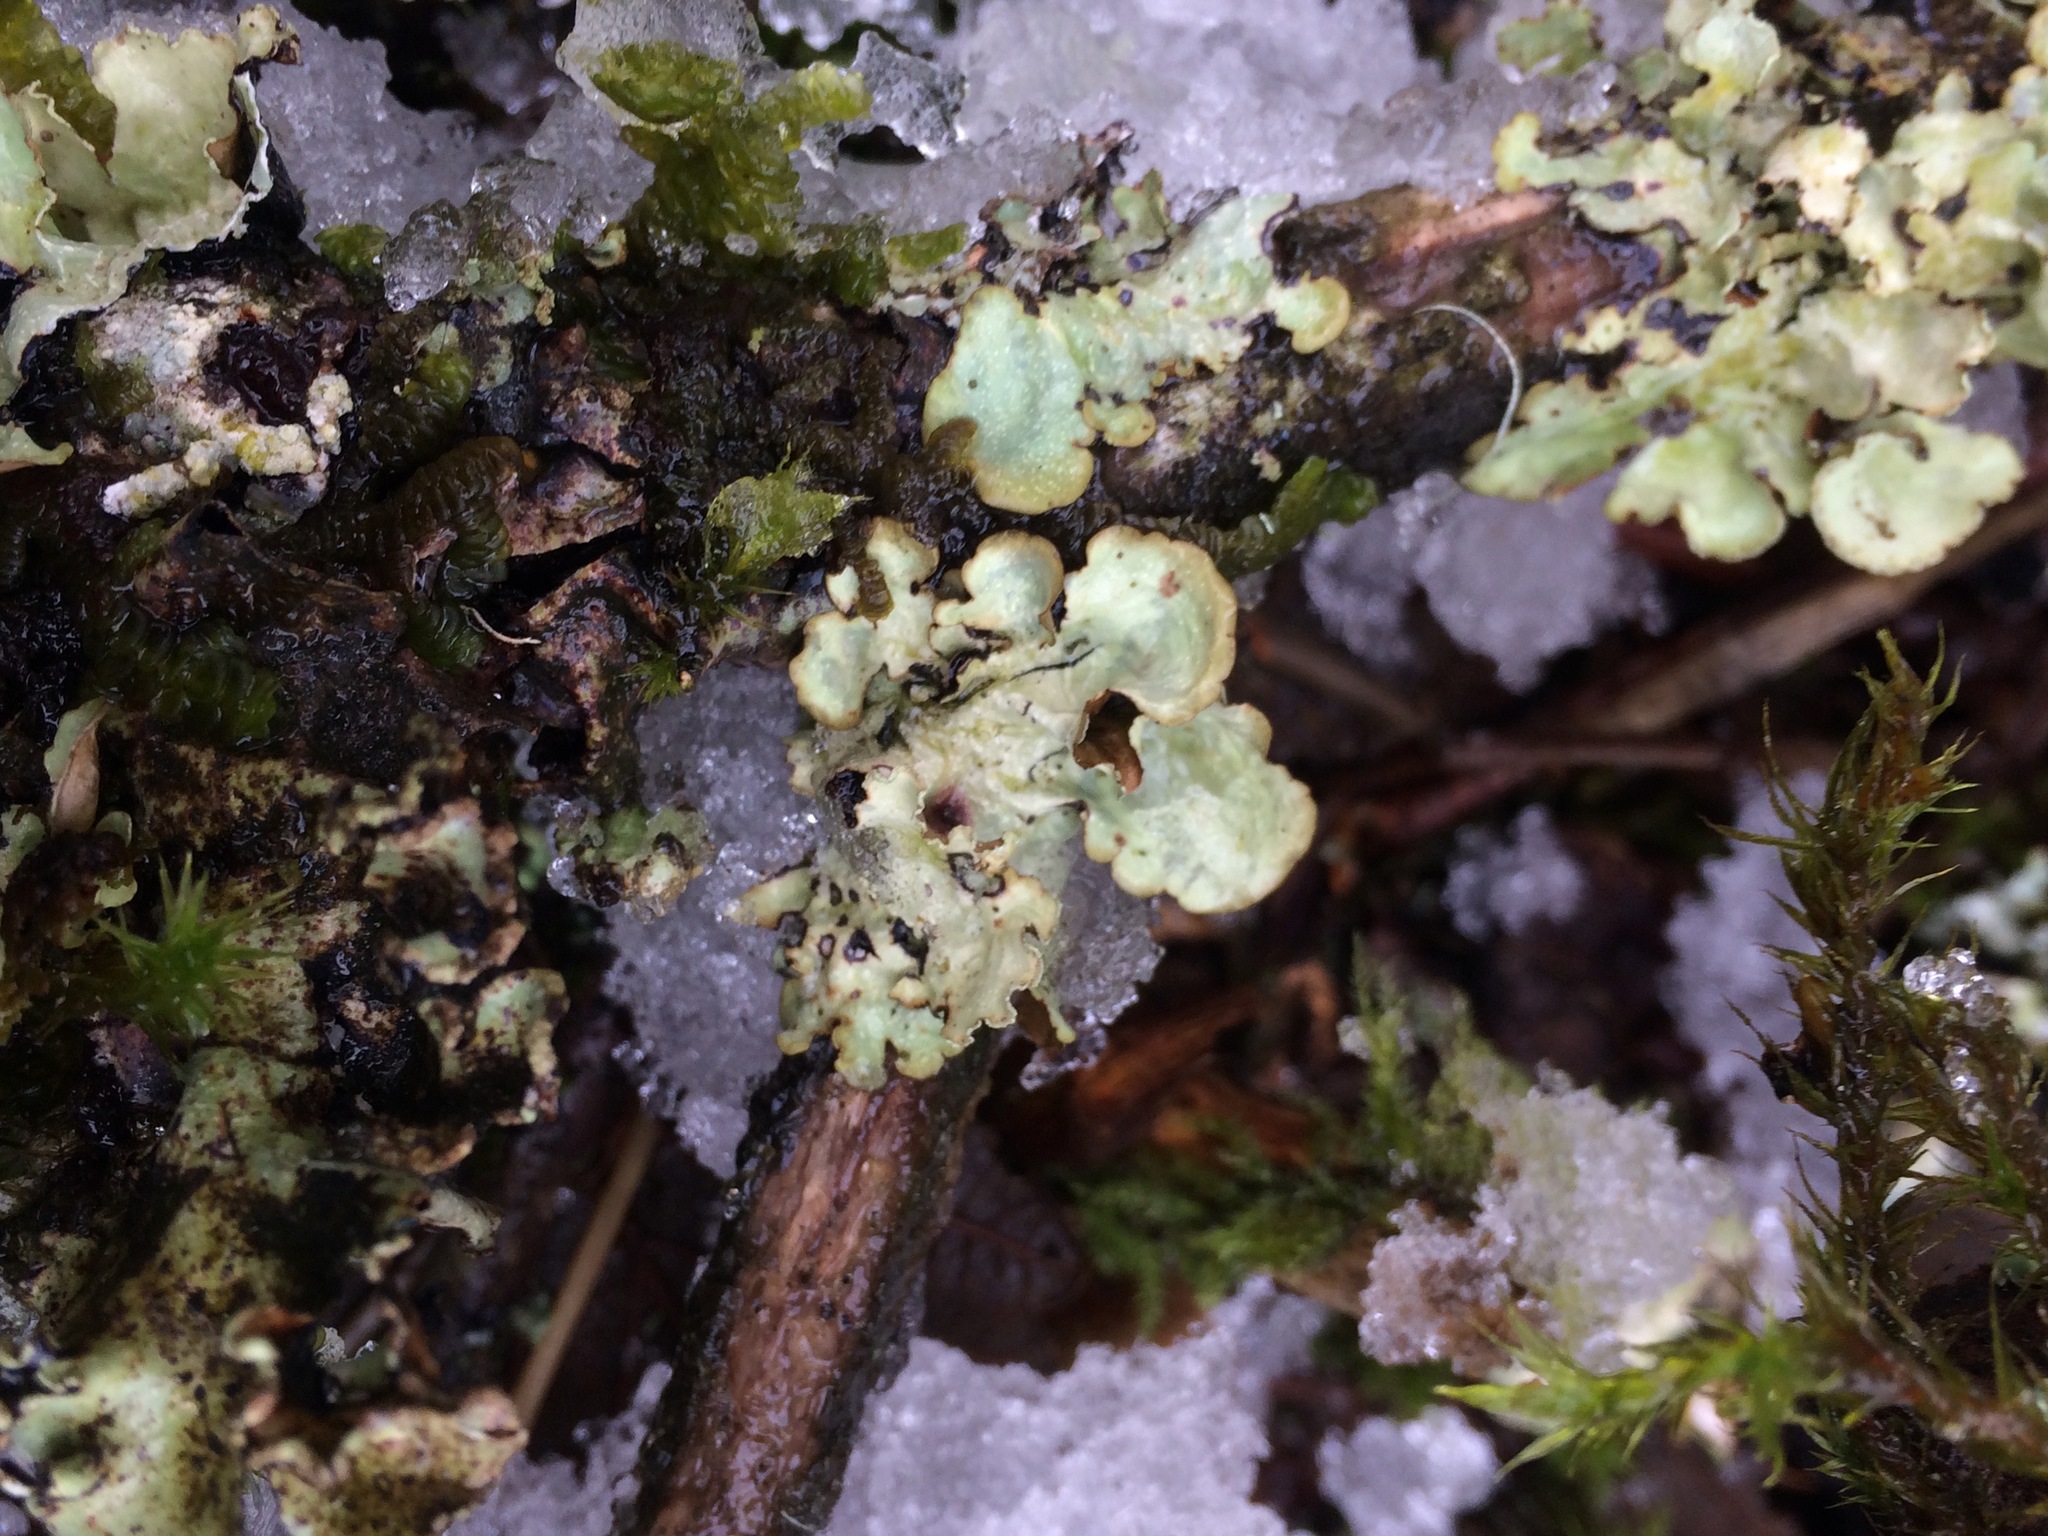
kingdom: Fungi
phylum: Ascomycota
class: Lecanoromycetes
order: Lecanorales
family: Parmeliaceae
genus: Cetrelia
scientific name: Cetrelia cetrarioides
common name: Speckled iceland lichen
